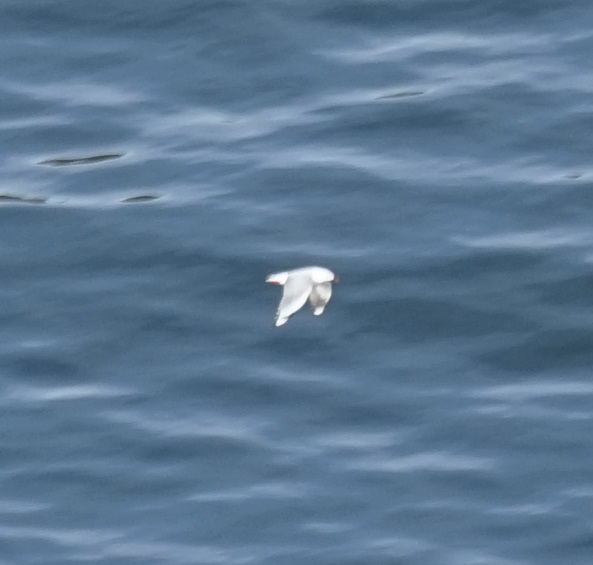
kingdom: Animalia
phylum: Chordata
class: Aves
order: Charadriiformes
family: Laridae
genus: Chroicocephalus
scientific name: Chroicocephalus novaehollandiae
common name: Silver gull
